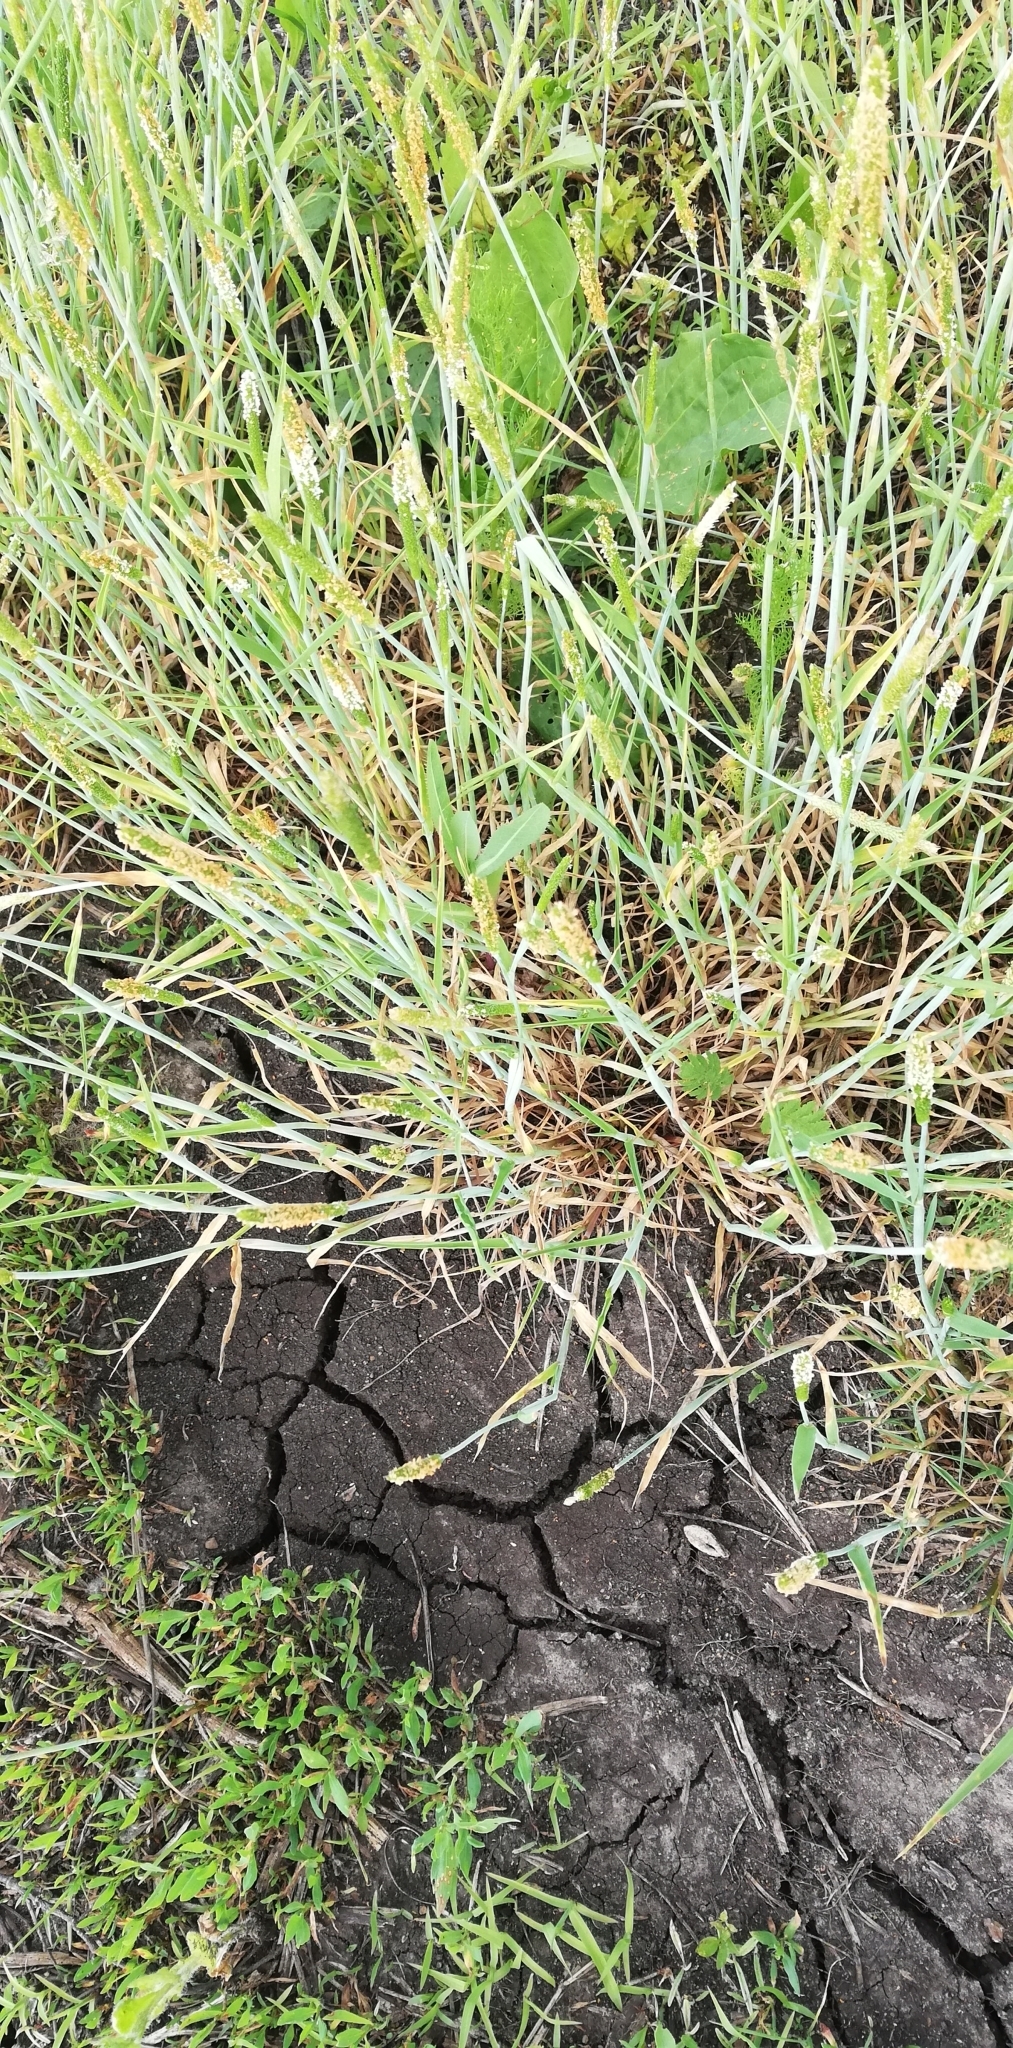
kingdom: Plantae
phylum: Tracheophyta
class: Liliopsida
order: Poales
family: Poaceae
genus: Alopecurus
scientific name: Alopecurus aequalis
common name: Orange foxtail
